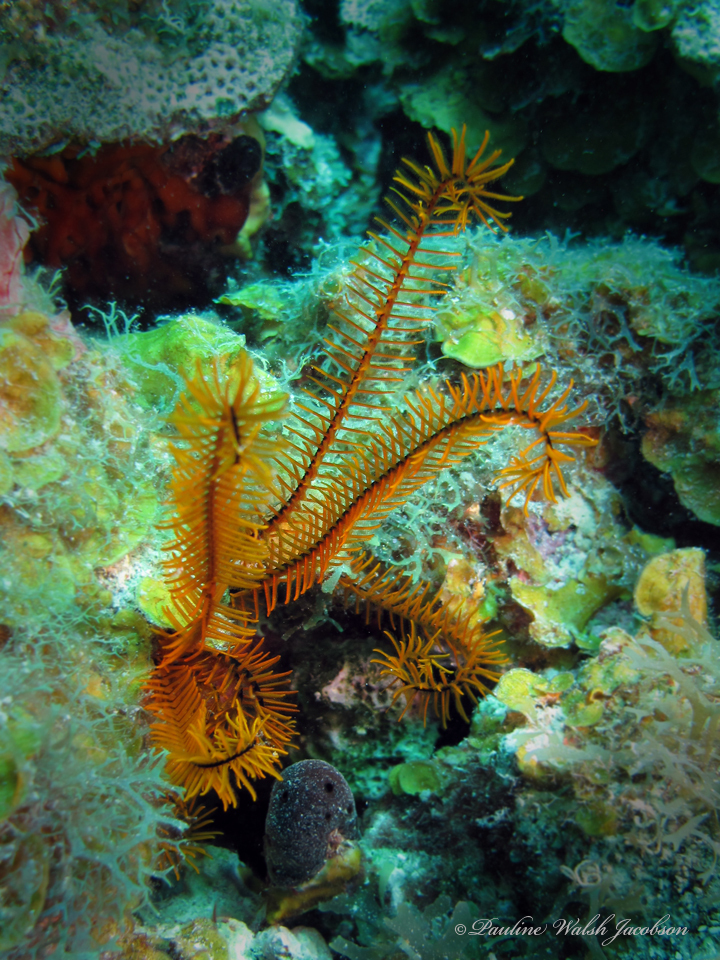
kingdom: Animalia
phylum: Echinodermata
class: Crinoidea
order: Comatulida
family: Comatulidae
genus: Davidaster
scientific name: Davidaster rubiginosus
